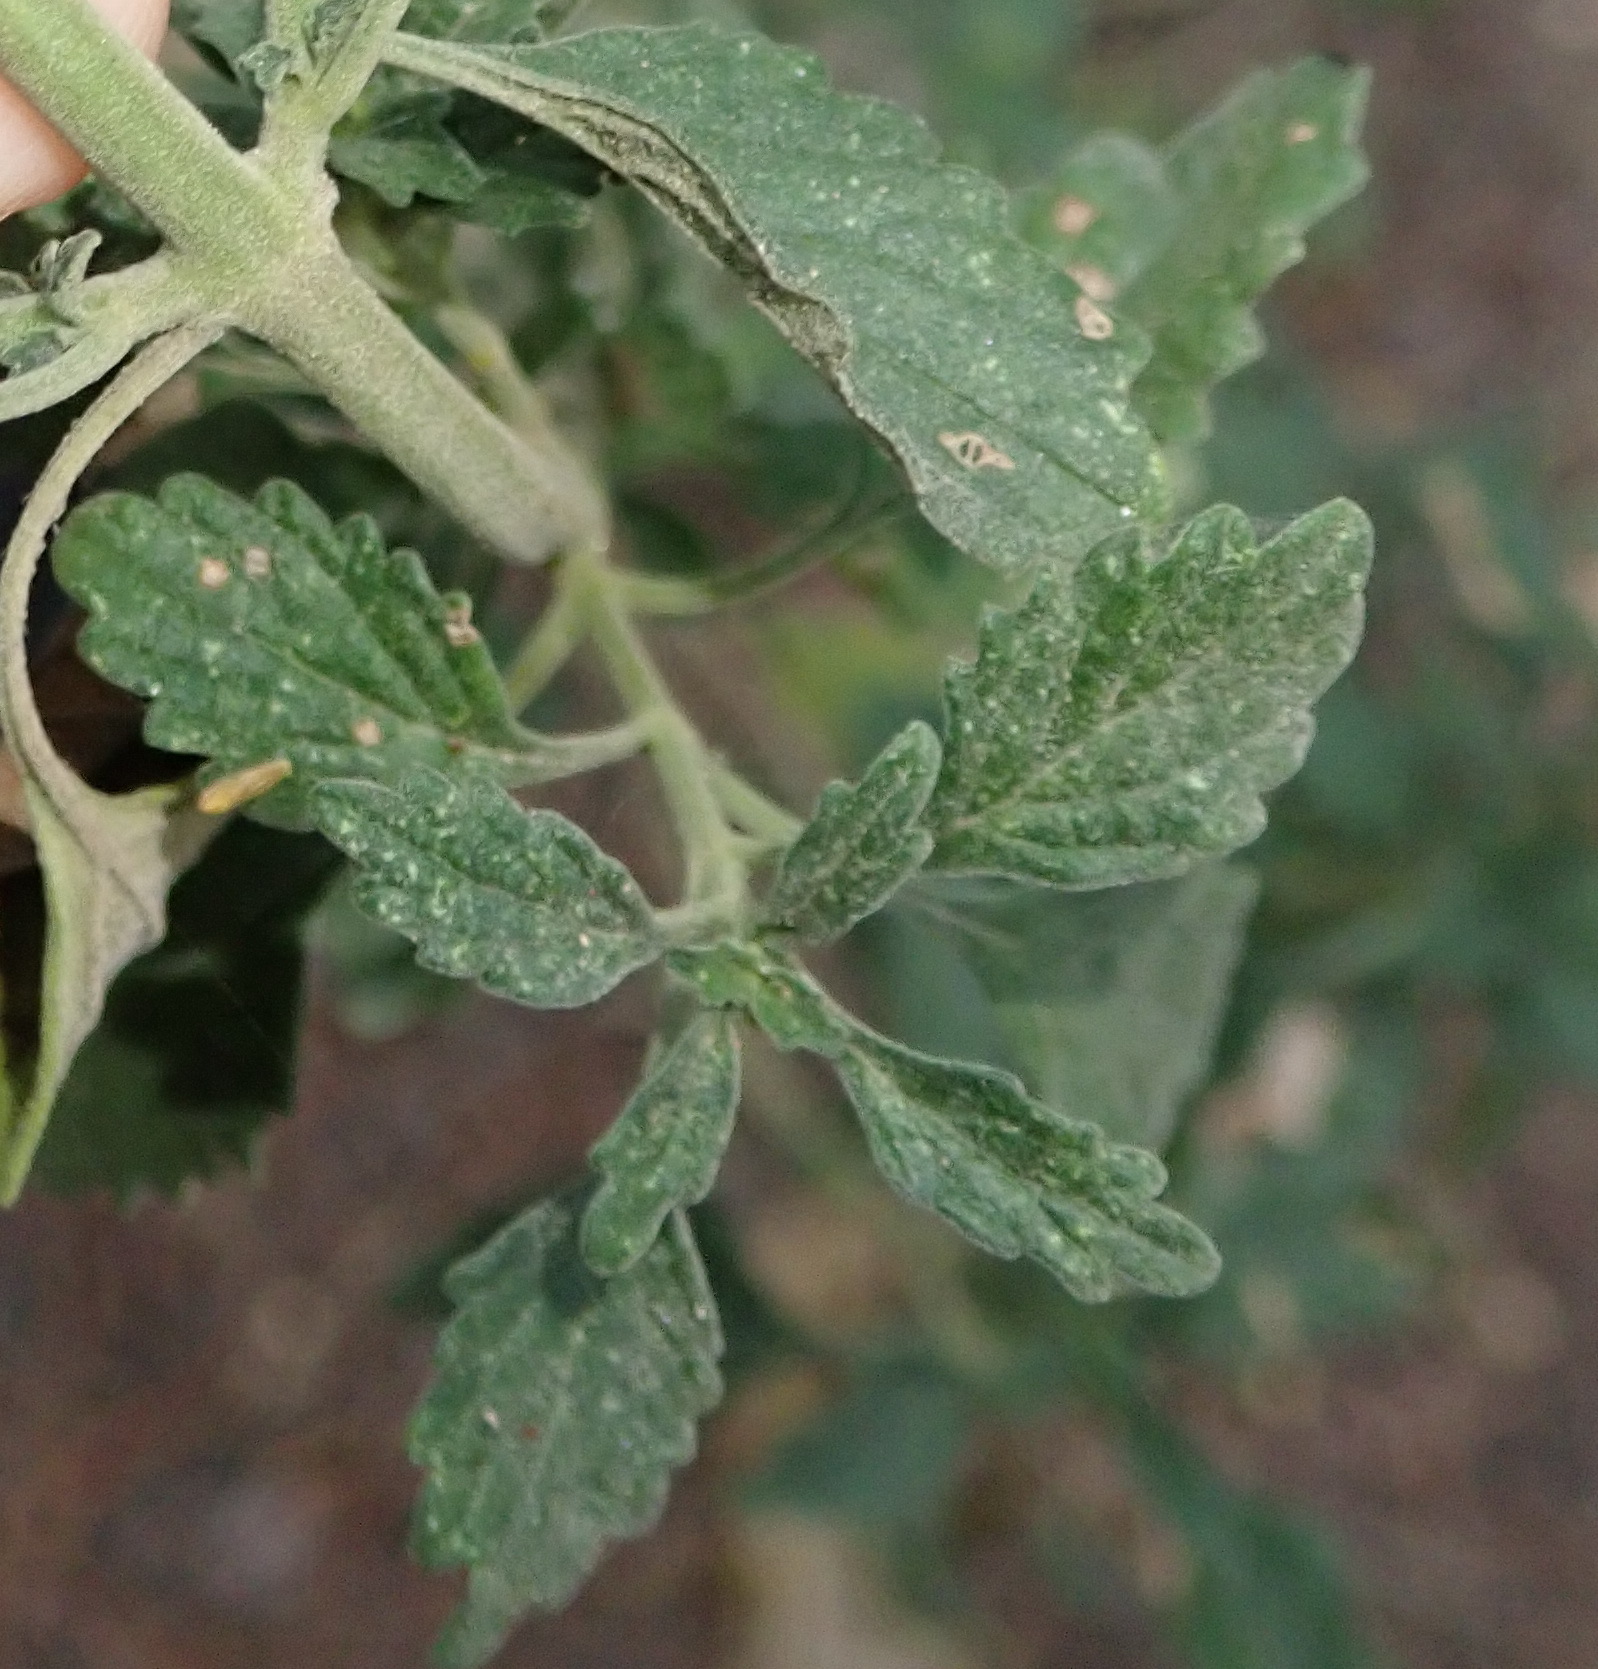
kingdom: Plantae
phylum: Tracheophyta
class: Magnoliopsida
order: Lamiales
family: Lamiaceae
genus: Leonotis
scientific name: Leonotis ocymifolia
